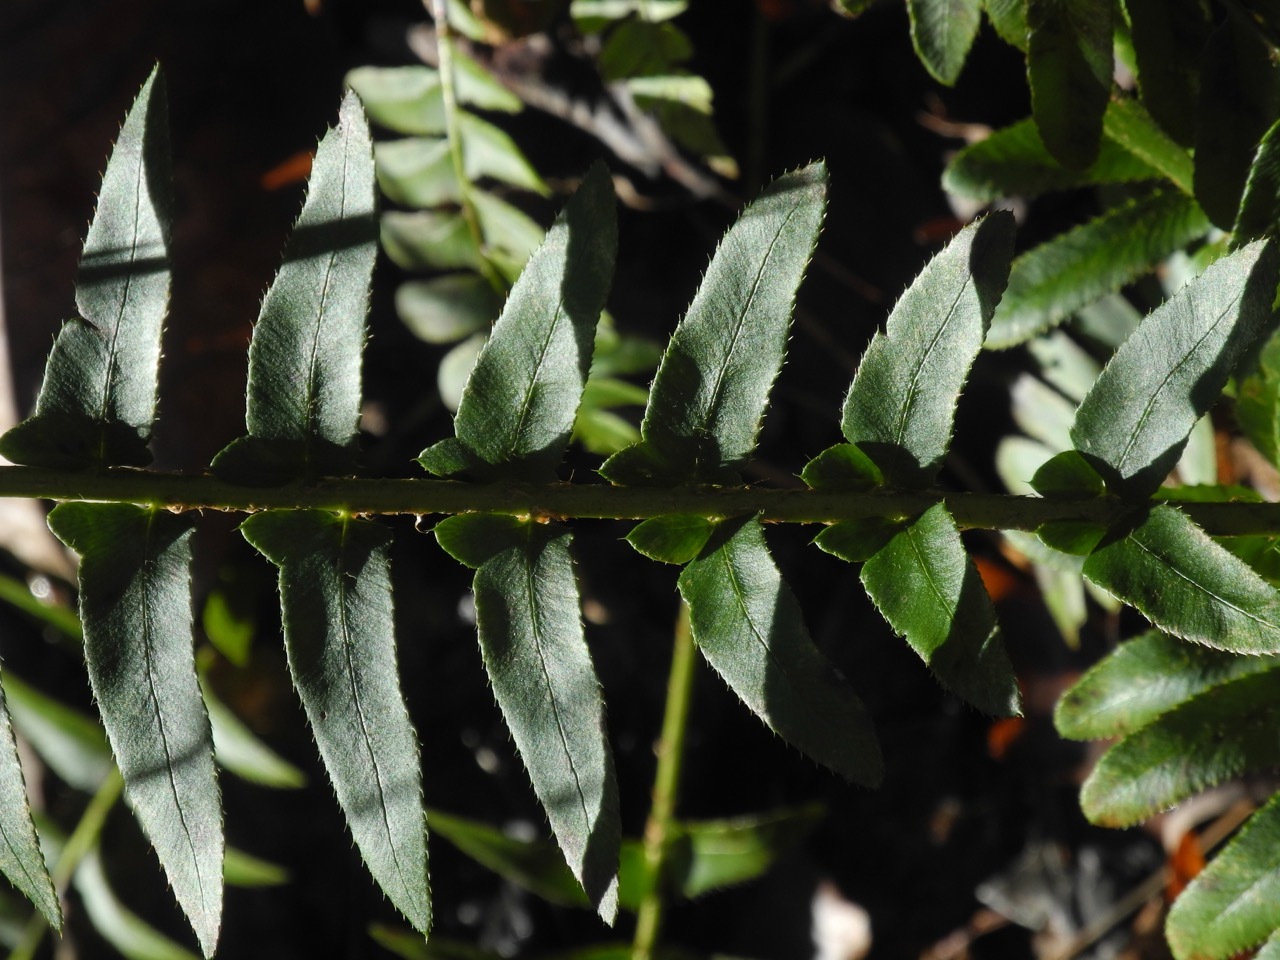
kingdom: Plantae
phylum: Tracheophyta
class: Polypodiopsida
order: Polypodiales
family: Dryopteridaceae
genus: Polystichum
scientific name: Polystichum acrostichoides
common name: Christmas fern
